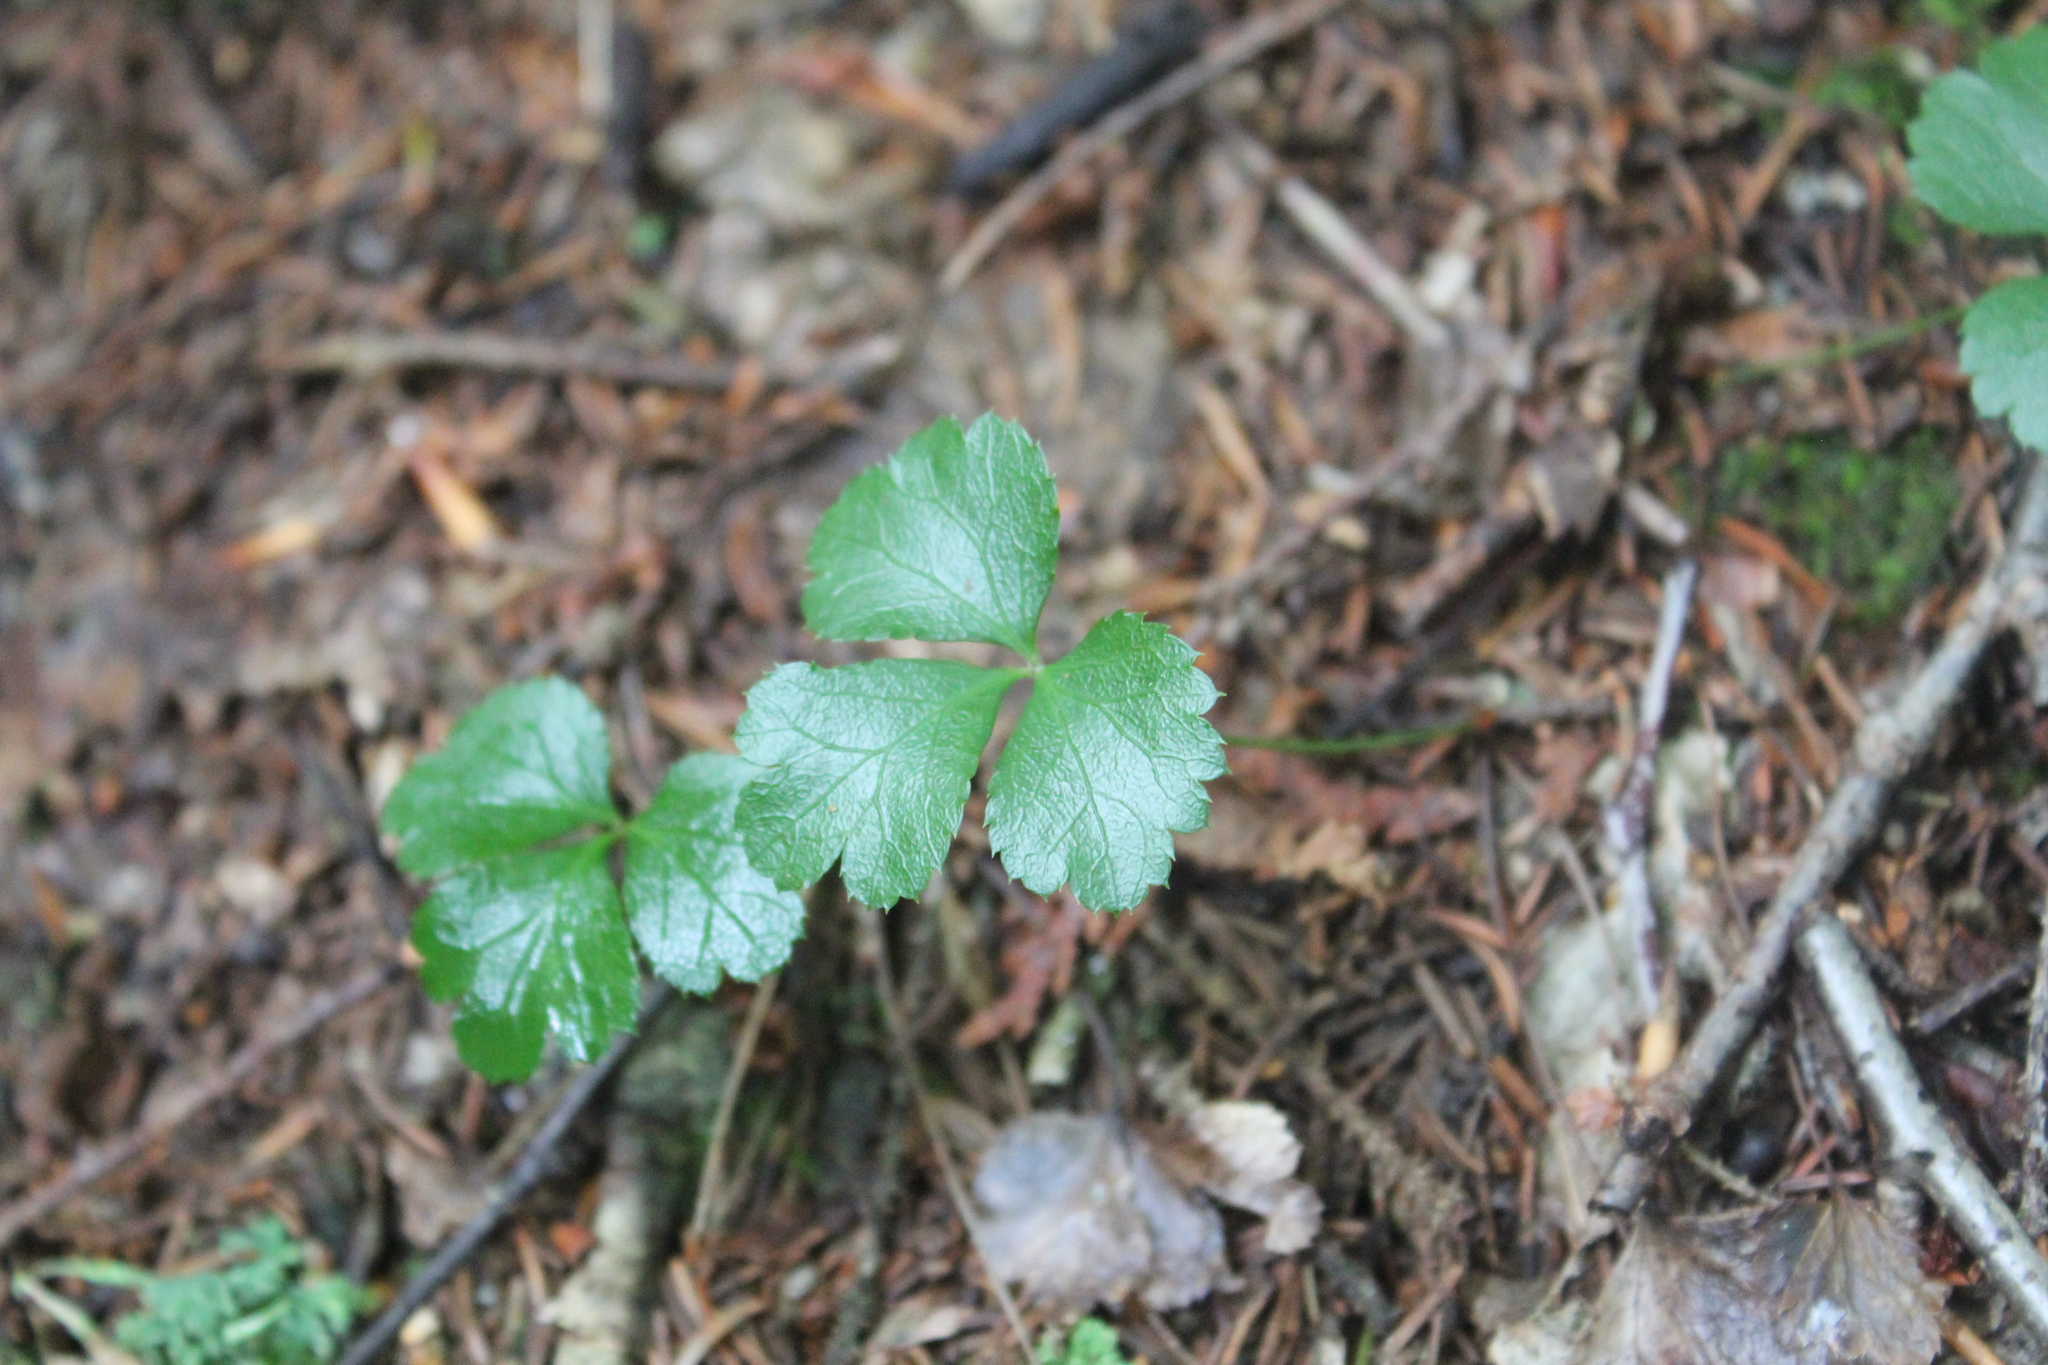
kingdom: Plantae
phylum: Tracheophyta
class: Magnoliopsida
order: Ranunculales
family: Ranunculaceae
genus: Coptis
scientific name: Coptis trifolia
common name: Canker-root
